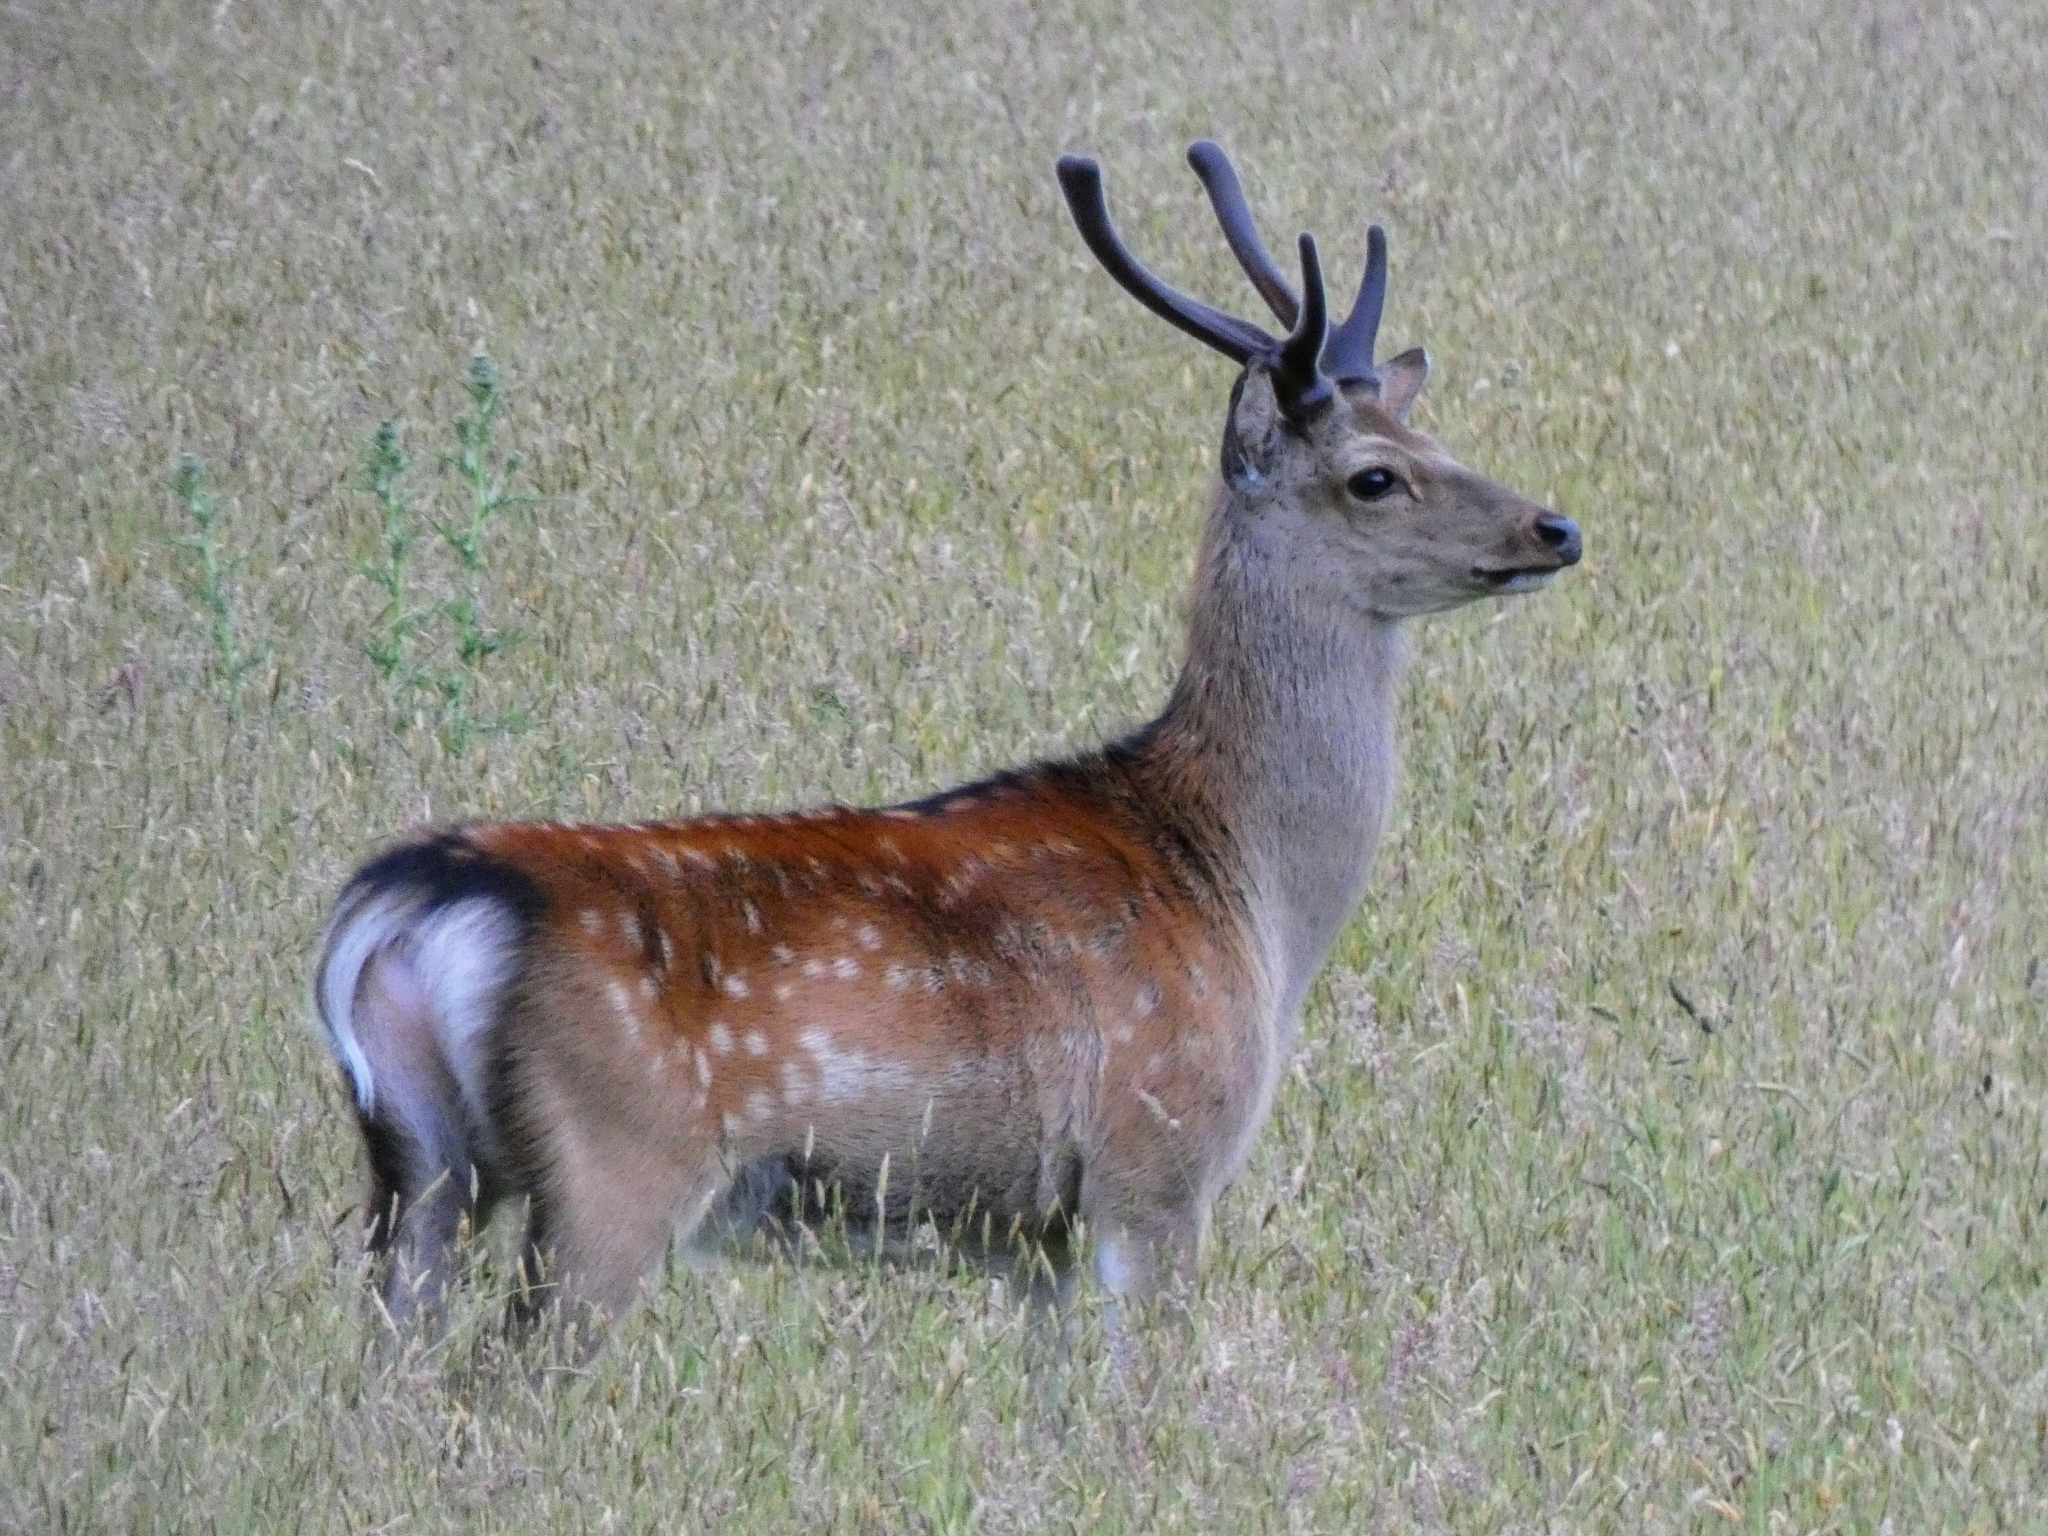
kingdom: Animalia
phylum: Chordata
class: Mammalia
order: Artiodactyla
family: Cervidae
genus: Cervus
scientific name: Cervus nippon
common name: Sika deer
